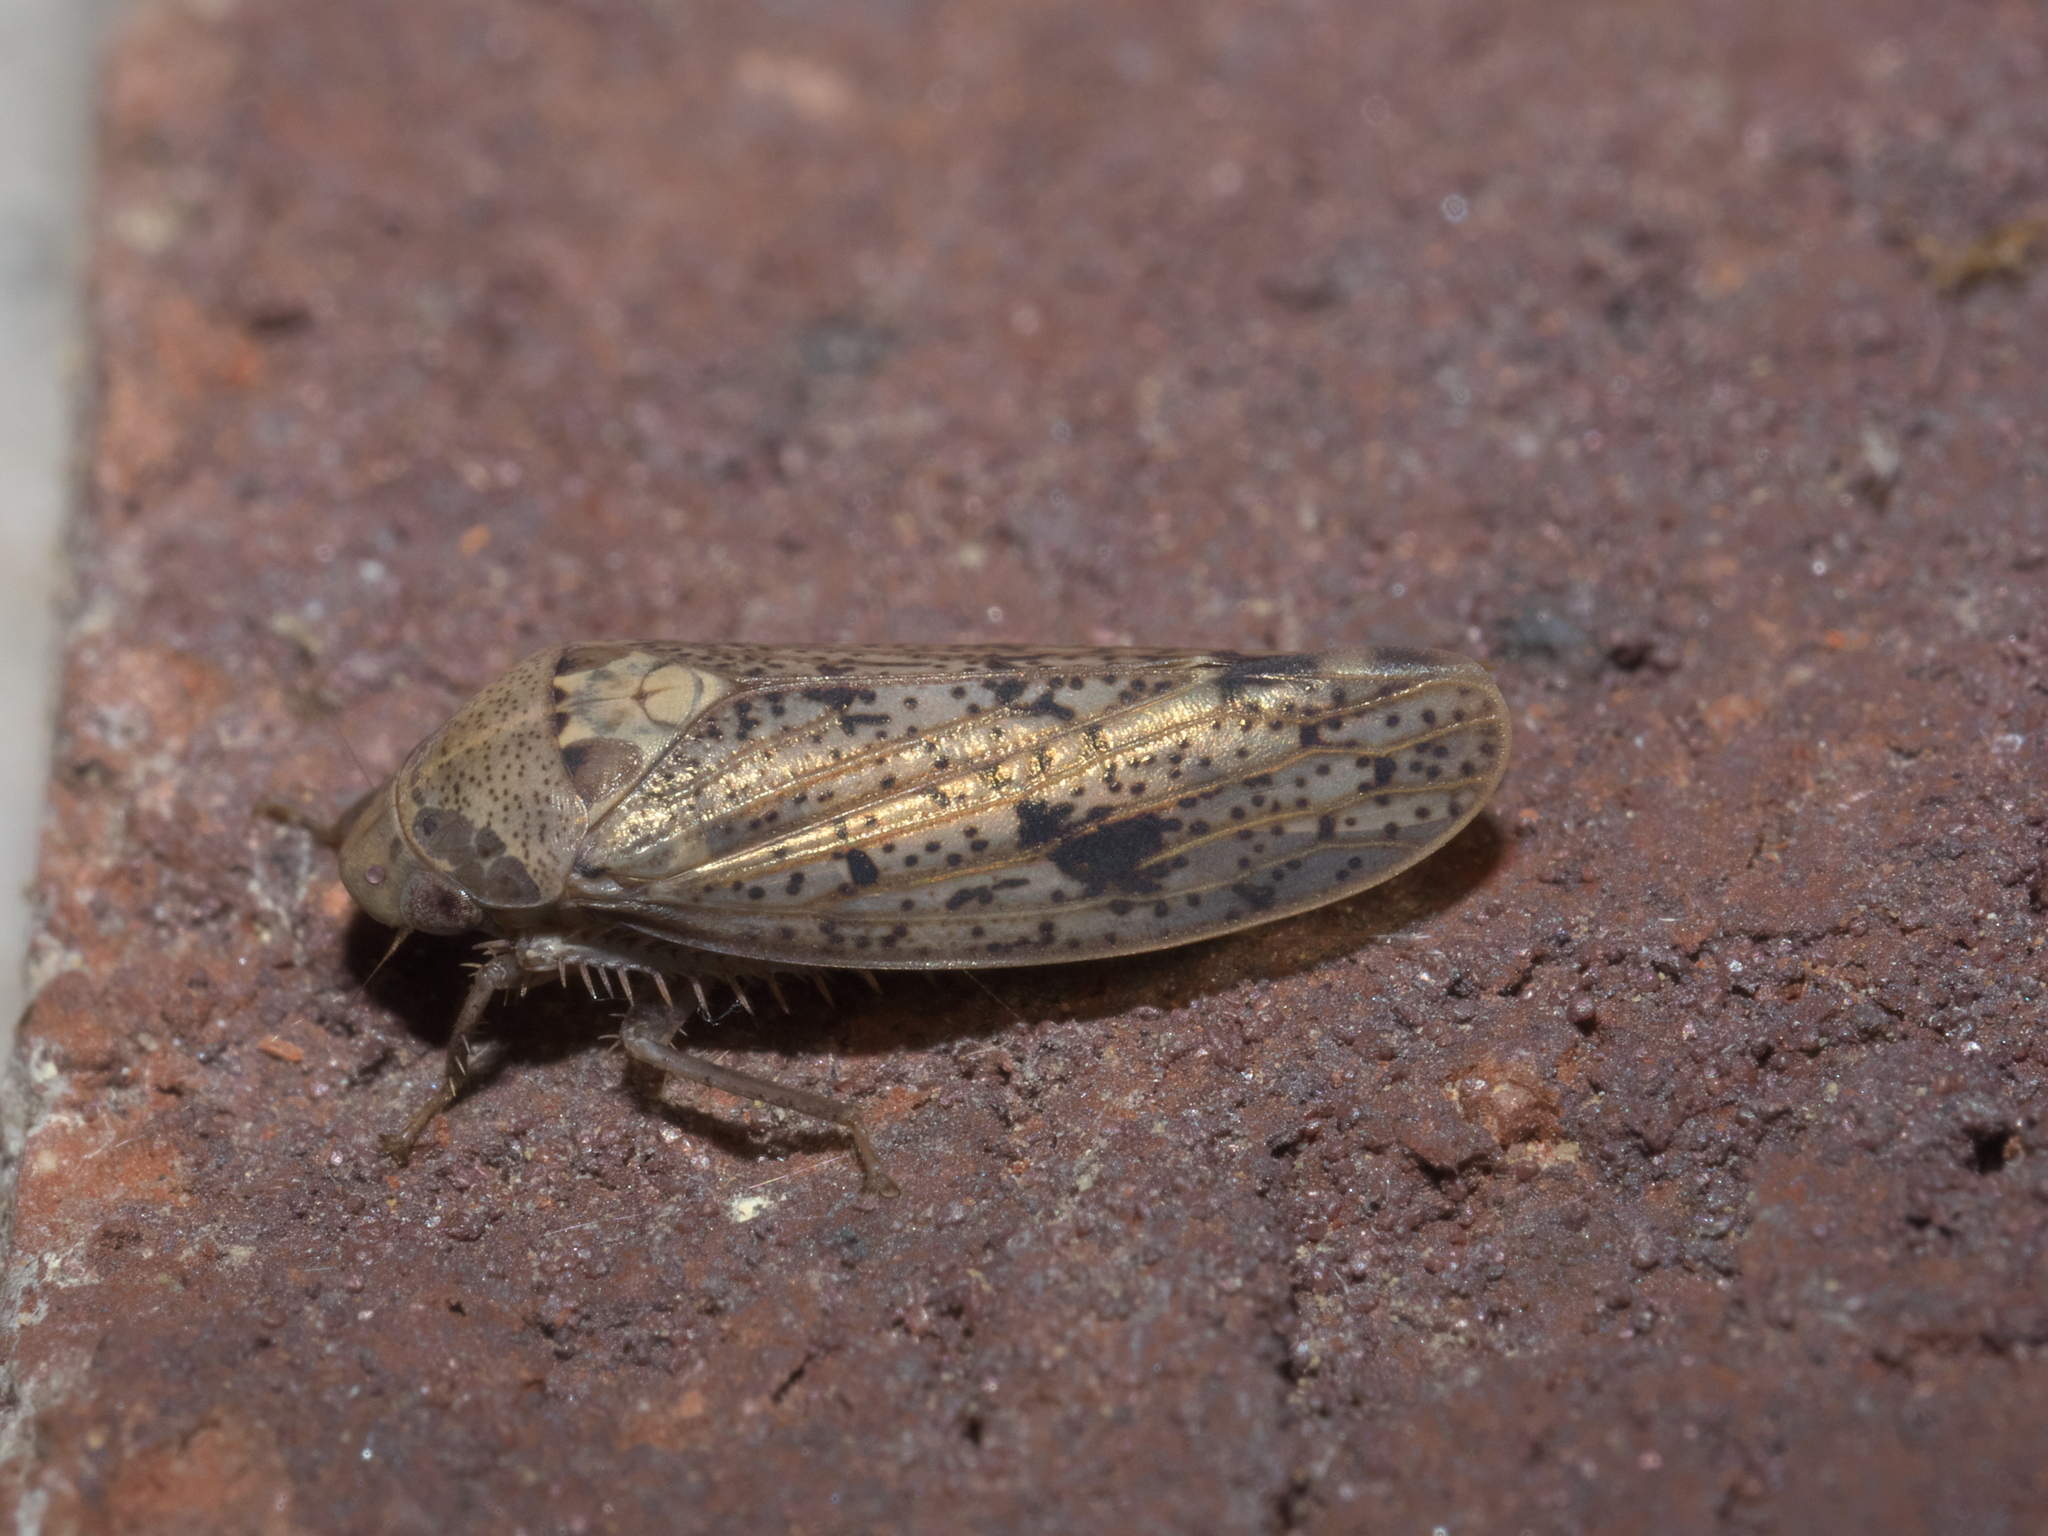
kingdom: Animalia
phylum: Arthropoda
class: Insecta
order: Hemiptera
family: Cicadellidae
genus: Ponana
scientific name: Ponana puncticollis
